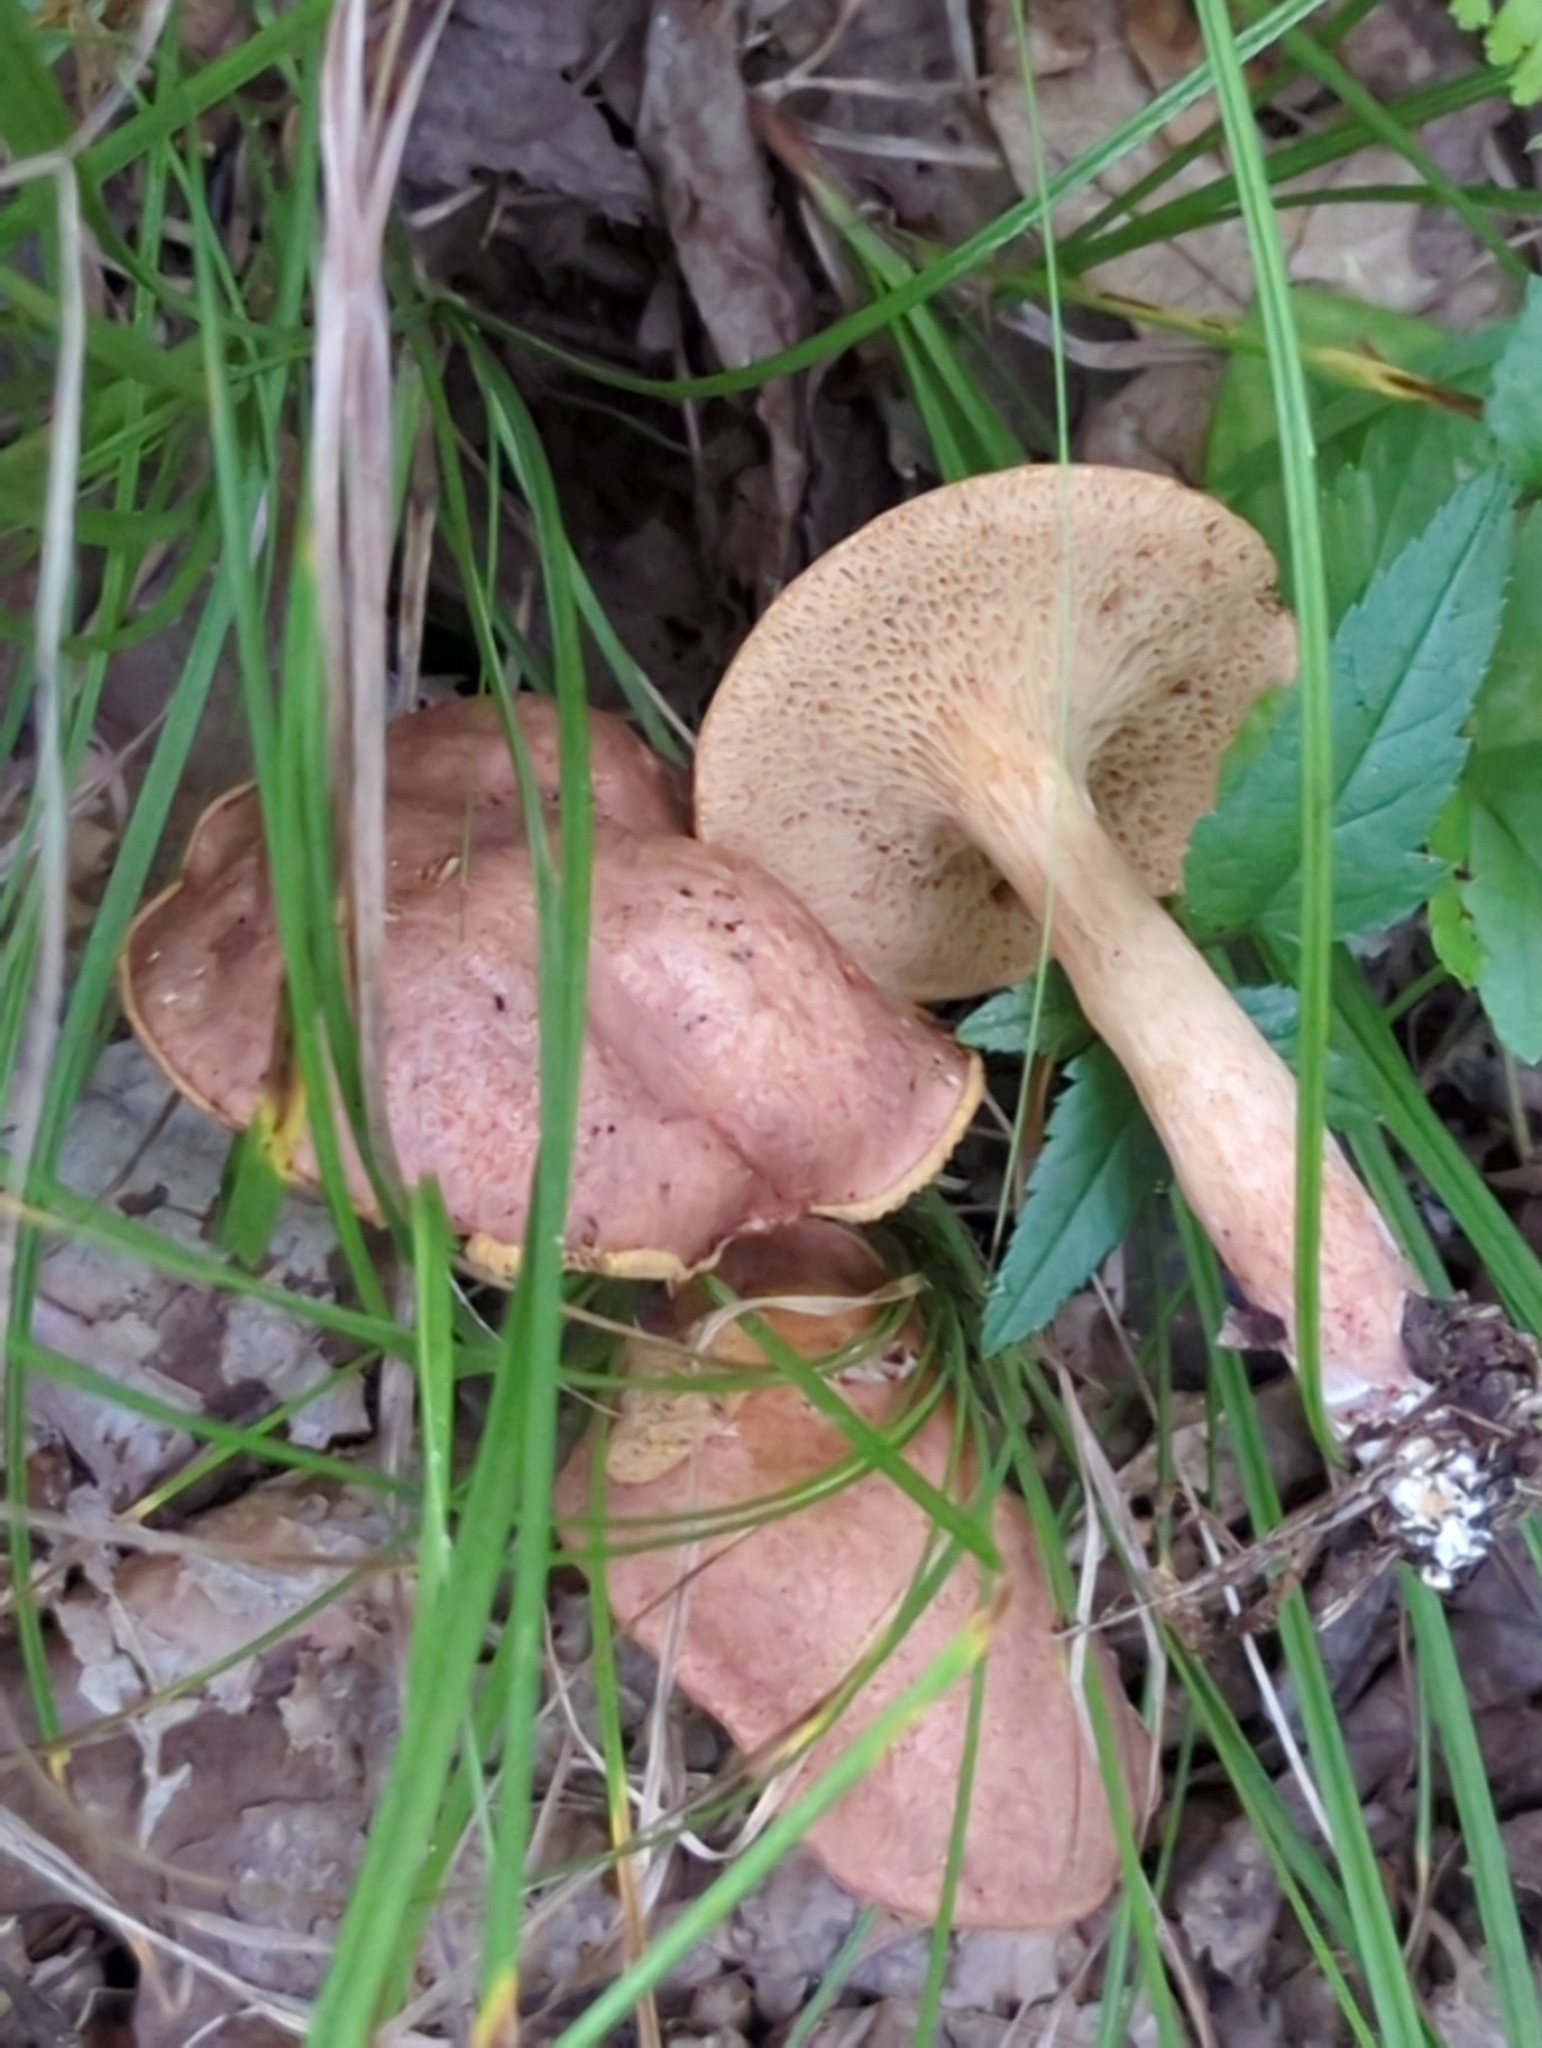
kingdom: Fungi
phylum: Basidiomycota
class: Agaricomycetes
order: Boletales
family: Boletaceae
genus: Bothia
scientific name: Bothia castanella
